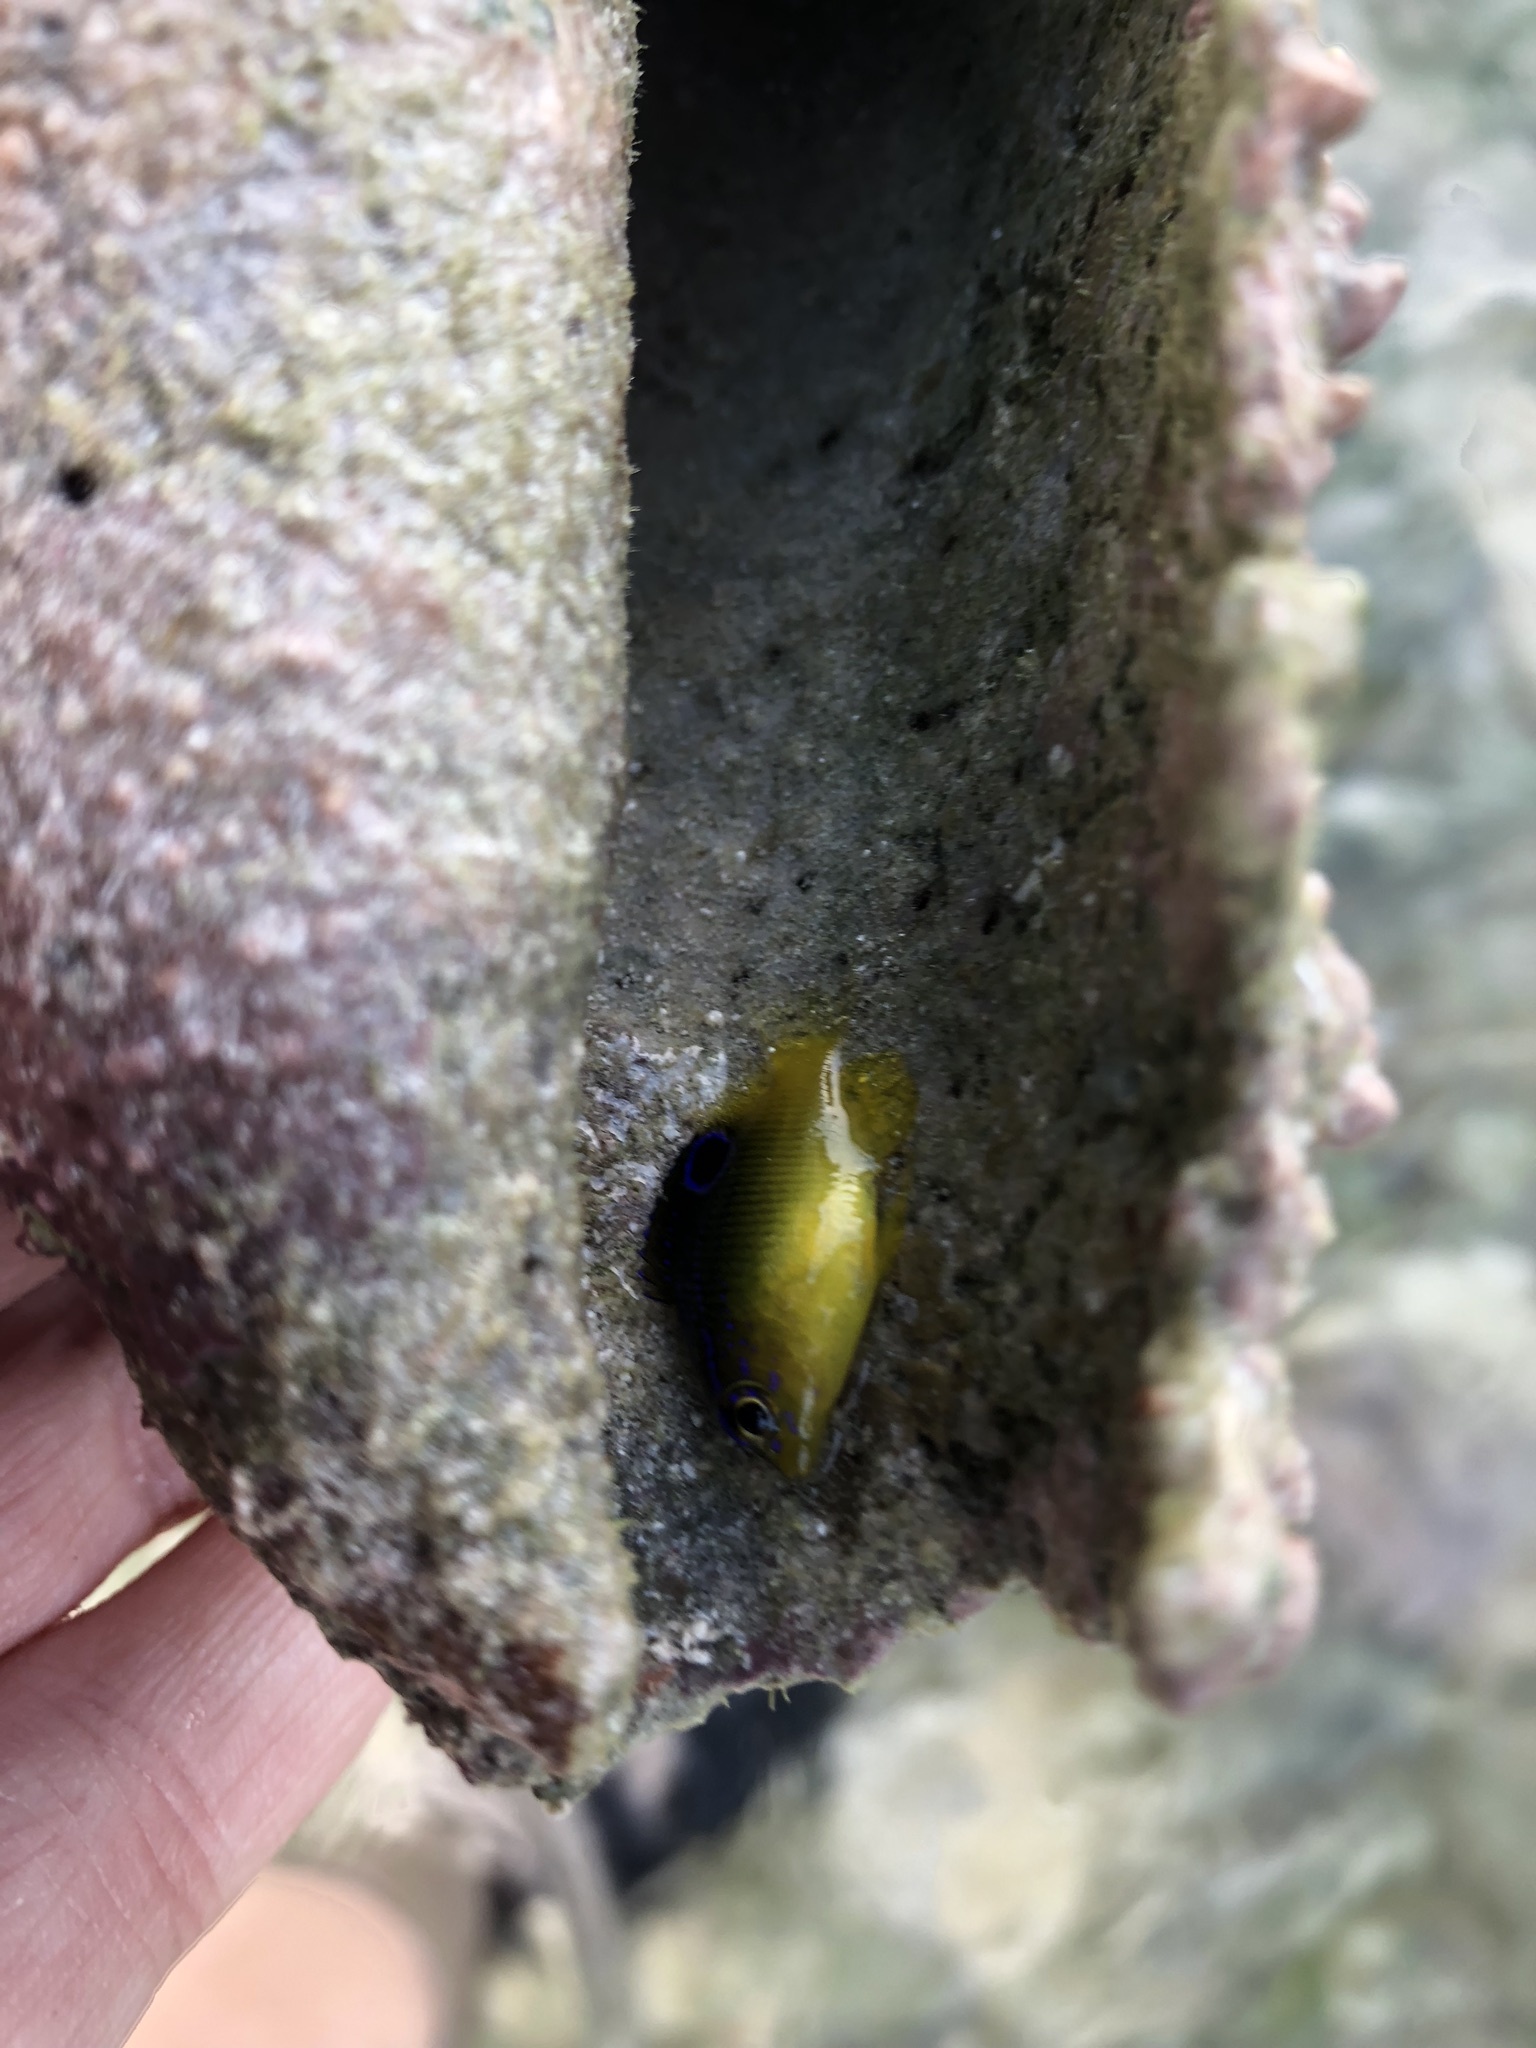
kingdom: Animalia
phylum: Chordata
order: Perciformes
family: Pomacentridae
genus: Stegastes
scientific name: Stegastes xanthurus
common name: Cocoa damselfish
